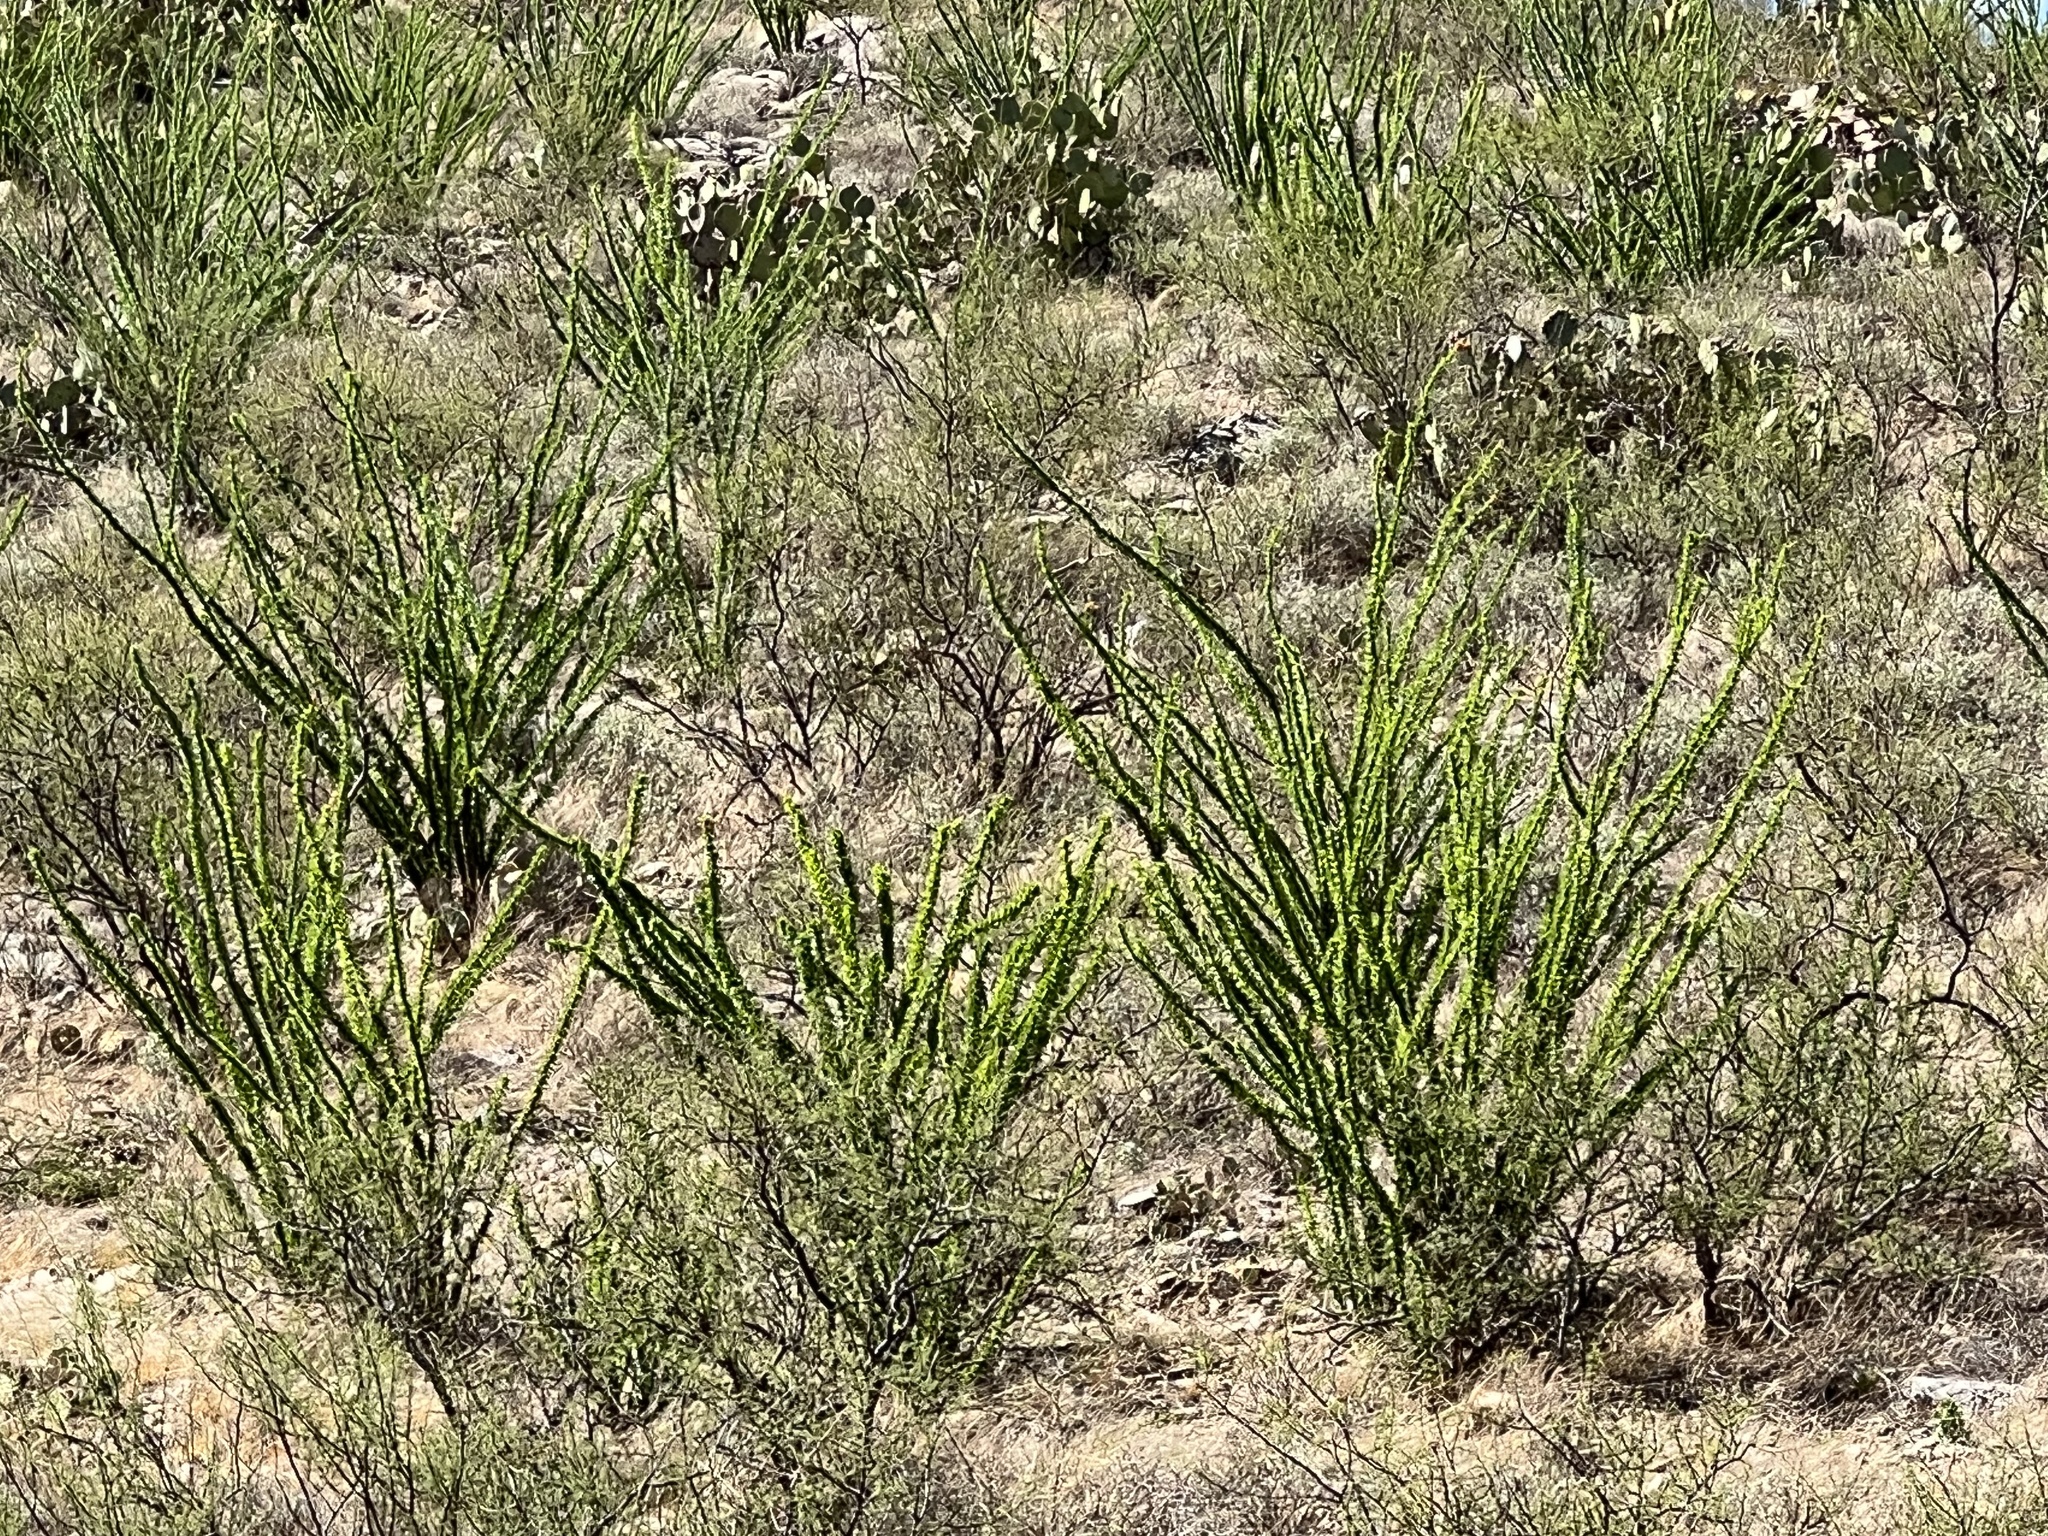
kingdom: Plantae
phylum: Tracheophyta
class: Magnoliopsida
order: Ericales
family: Fouquieriaceae
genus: Fouquieria
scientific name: Fouquieria splendens
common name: Vine-cactus
